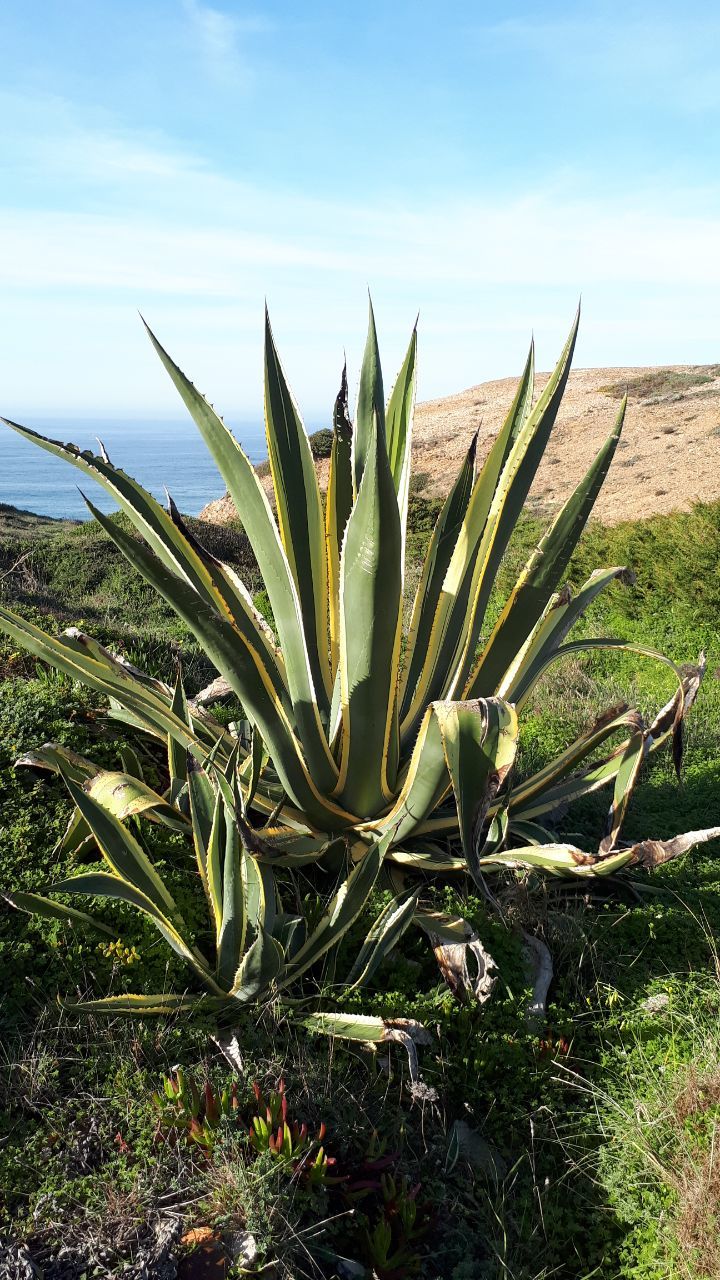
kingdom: Plantae
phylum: Tracheophyta
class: Liliopsida
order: Asparagales
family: Asparagaceae
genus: Agave
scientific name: Agave americana
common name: Centuryplant
